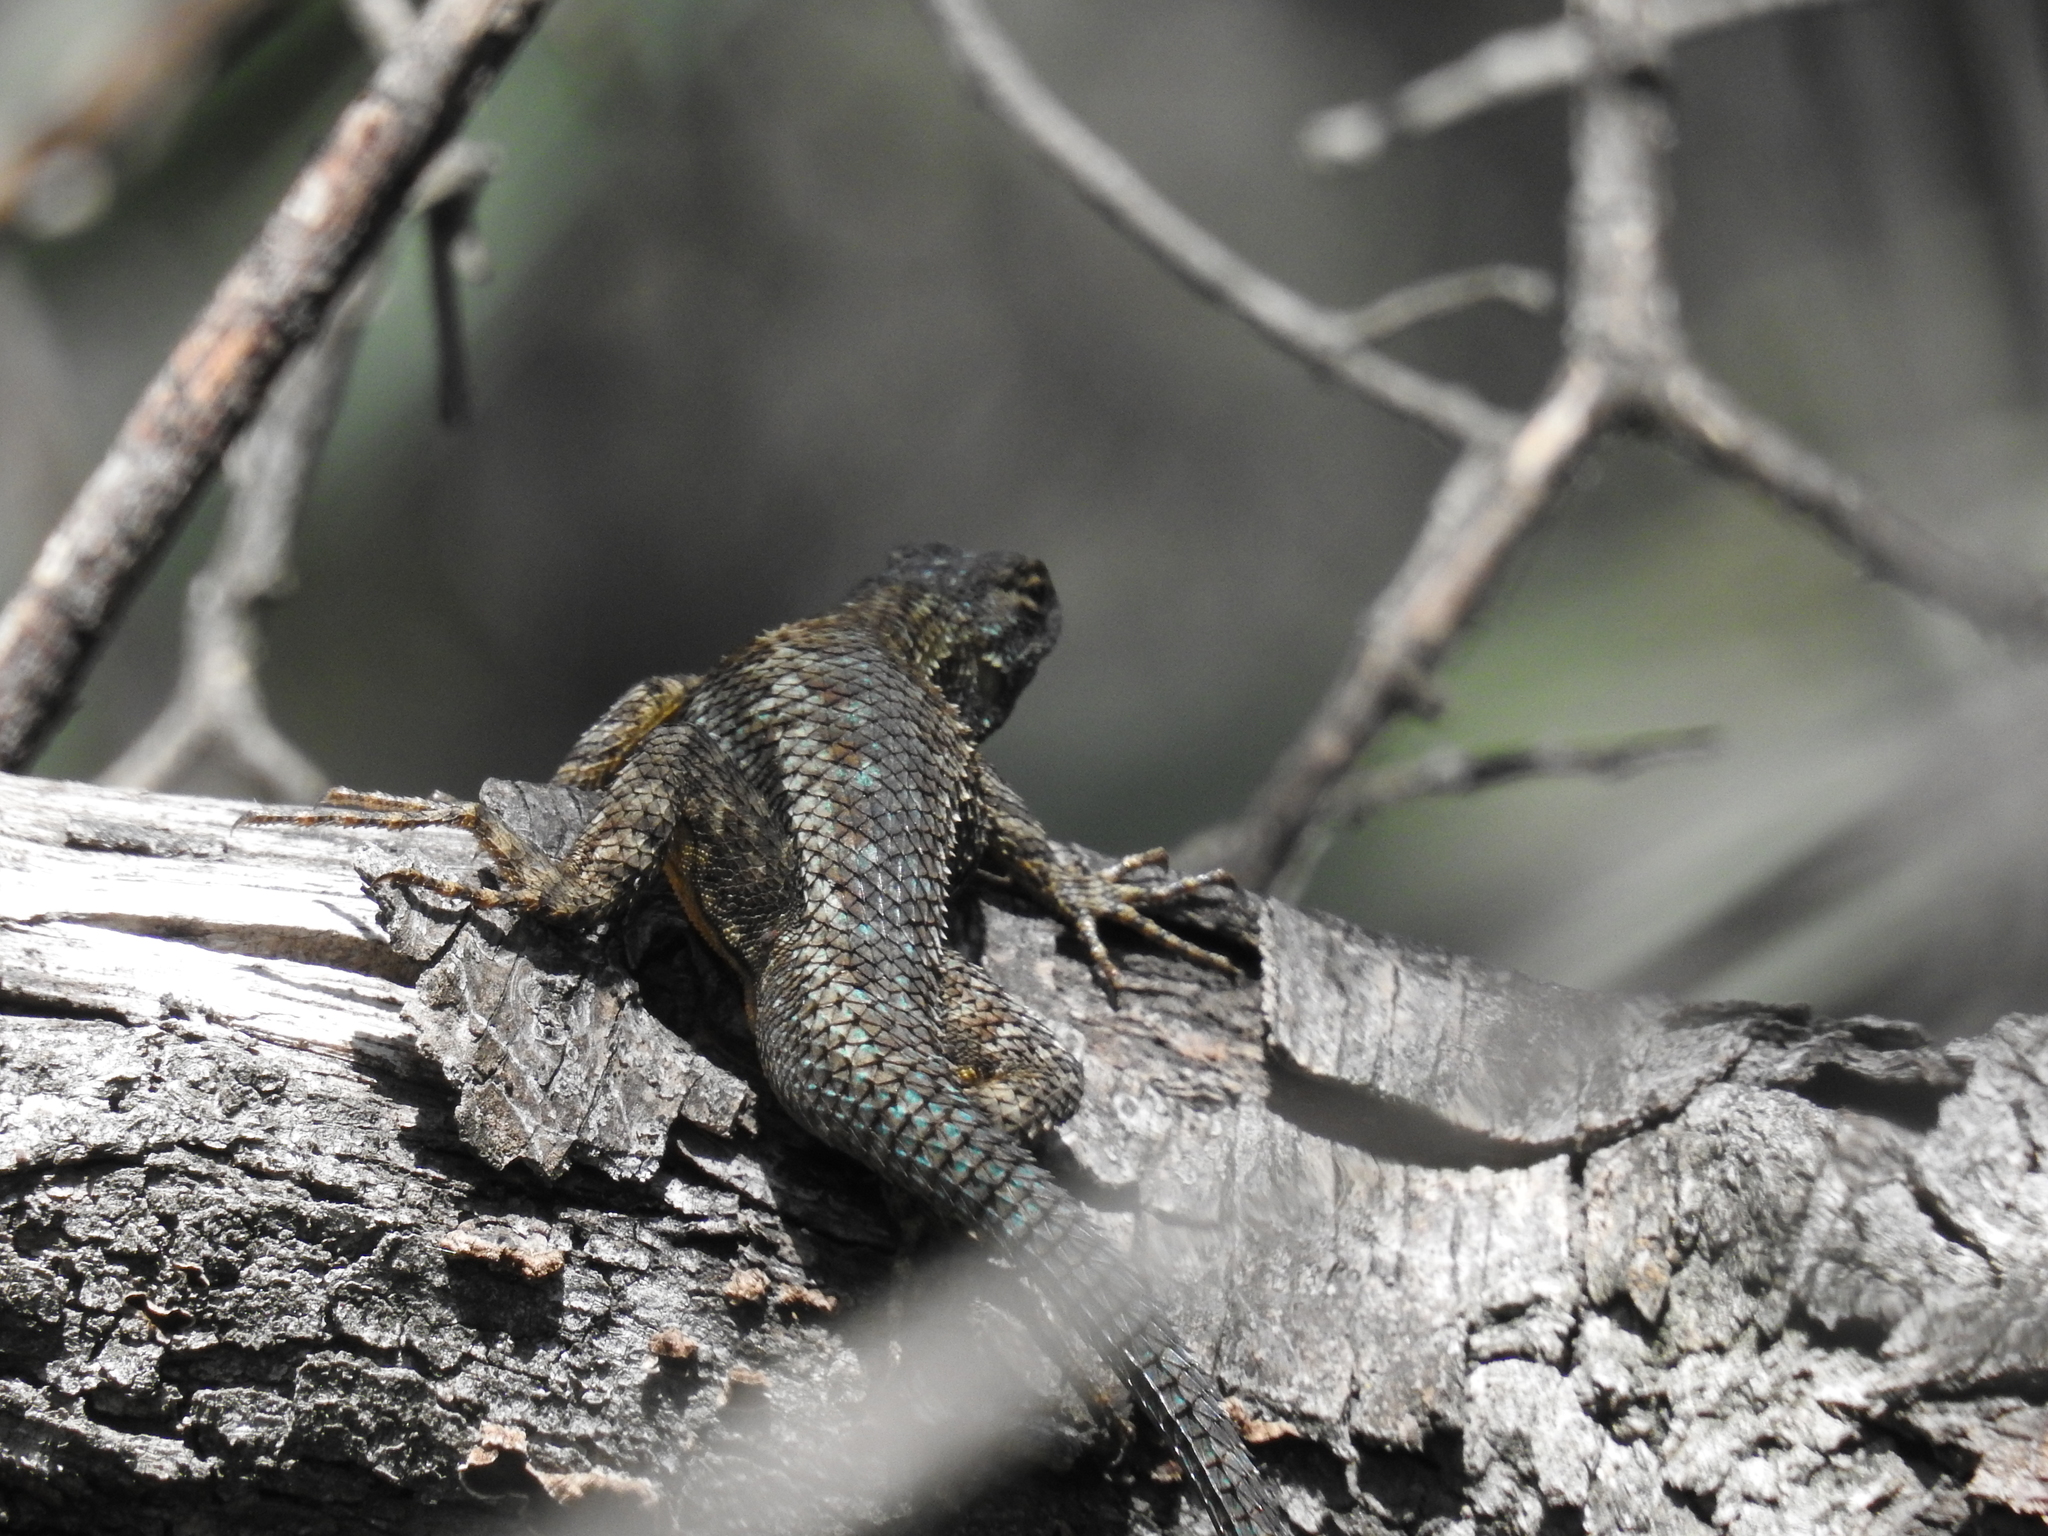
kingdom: Animalia
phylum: Chordata
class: Squamata
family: Phrynosomatidae
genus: Sceloporus
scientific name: Sceloporus occidentalis
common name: Western fence lizard
